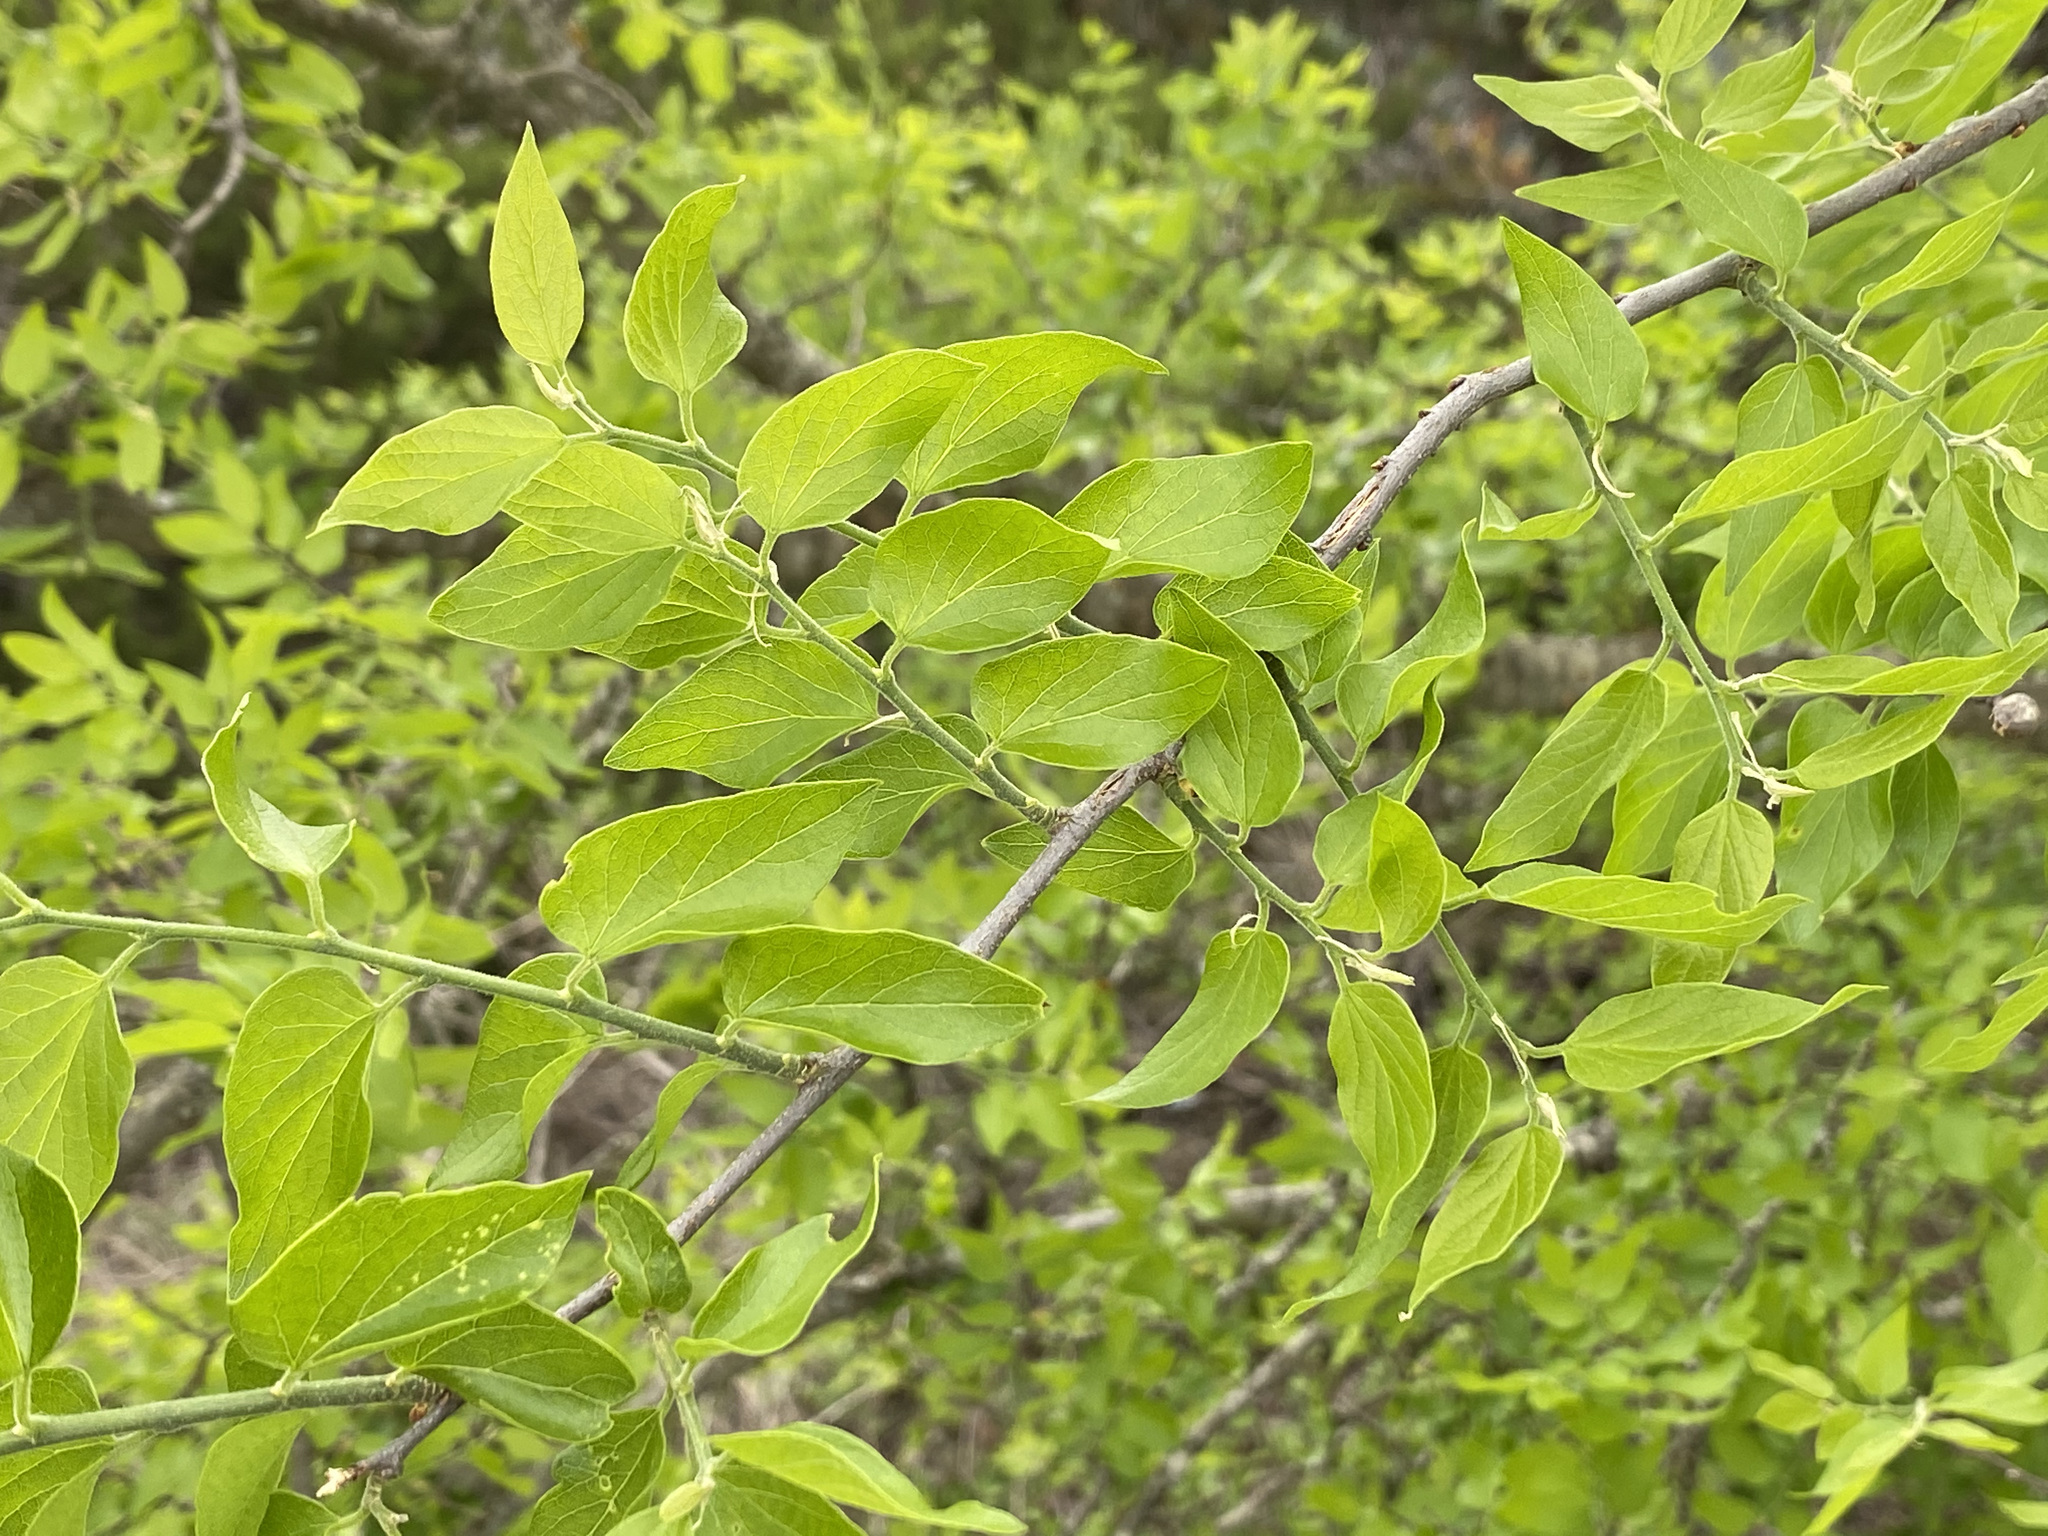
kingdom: Plantae
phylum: Tracheophyta
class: Magnoliopsida
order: Rosales
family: Cannabaceae
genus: Celtis
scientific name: Celtis laevigata
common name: Sugarberry
